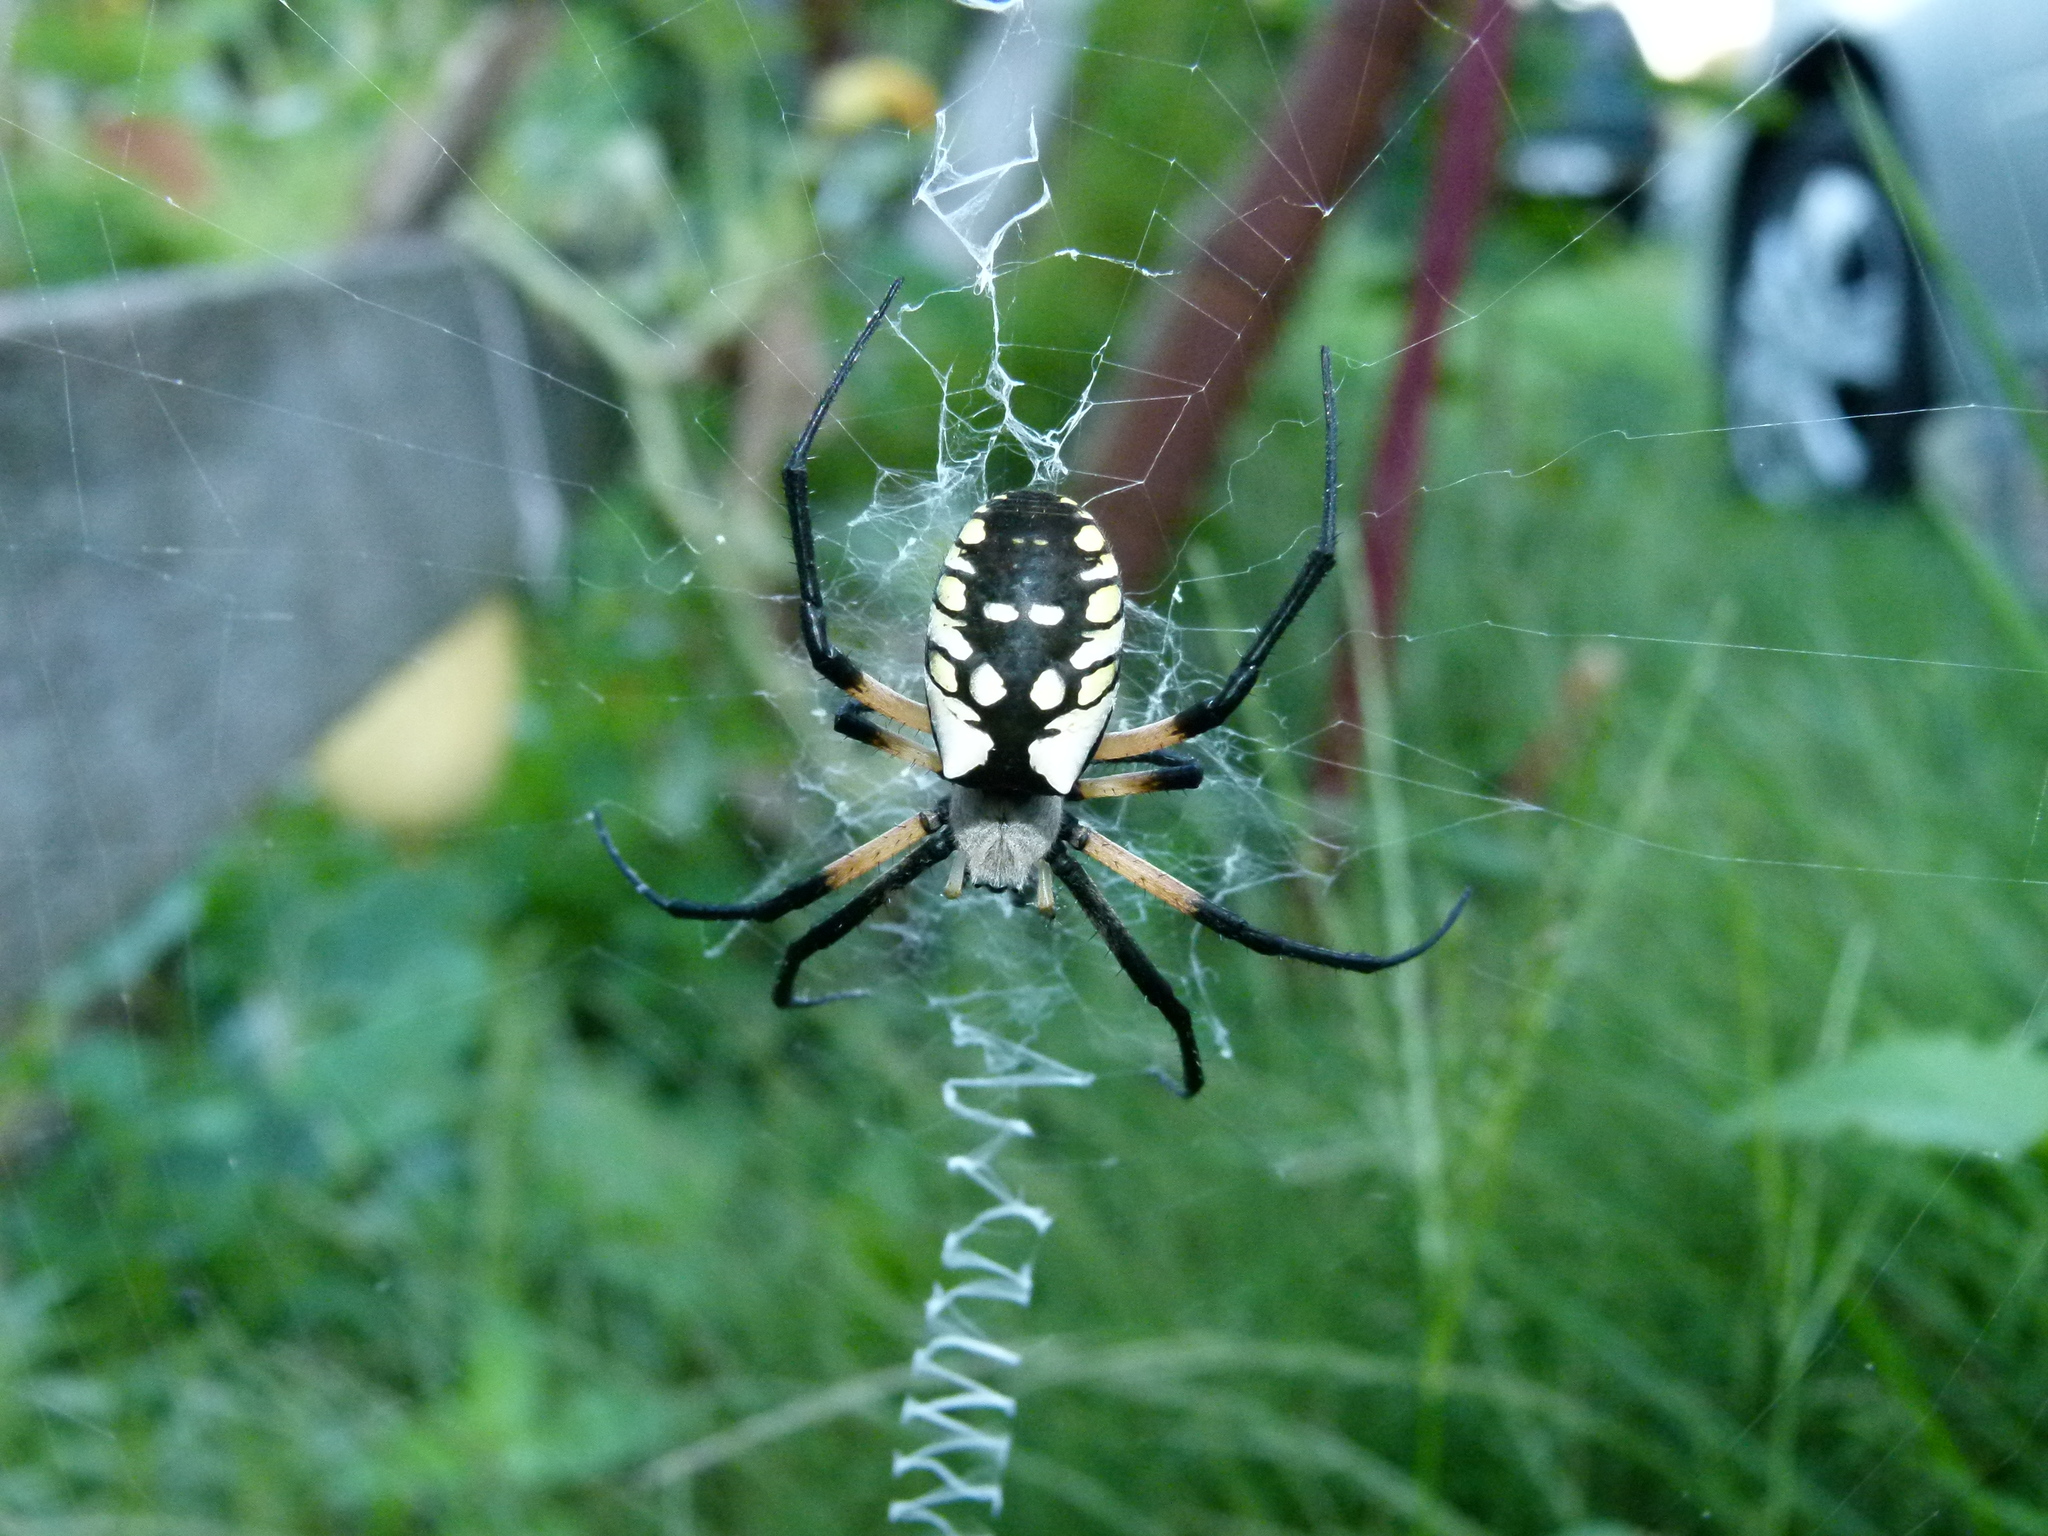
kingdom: Animalia
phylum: Arthropoda
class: Arachnida
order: Araneae
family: Araneidae
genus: Argiope
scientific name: Argiope aurantia
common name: Orb weavers
